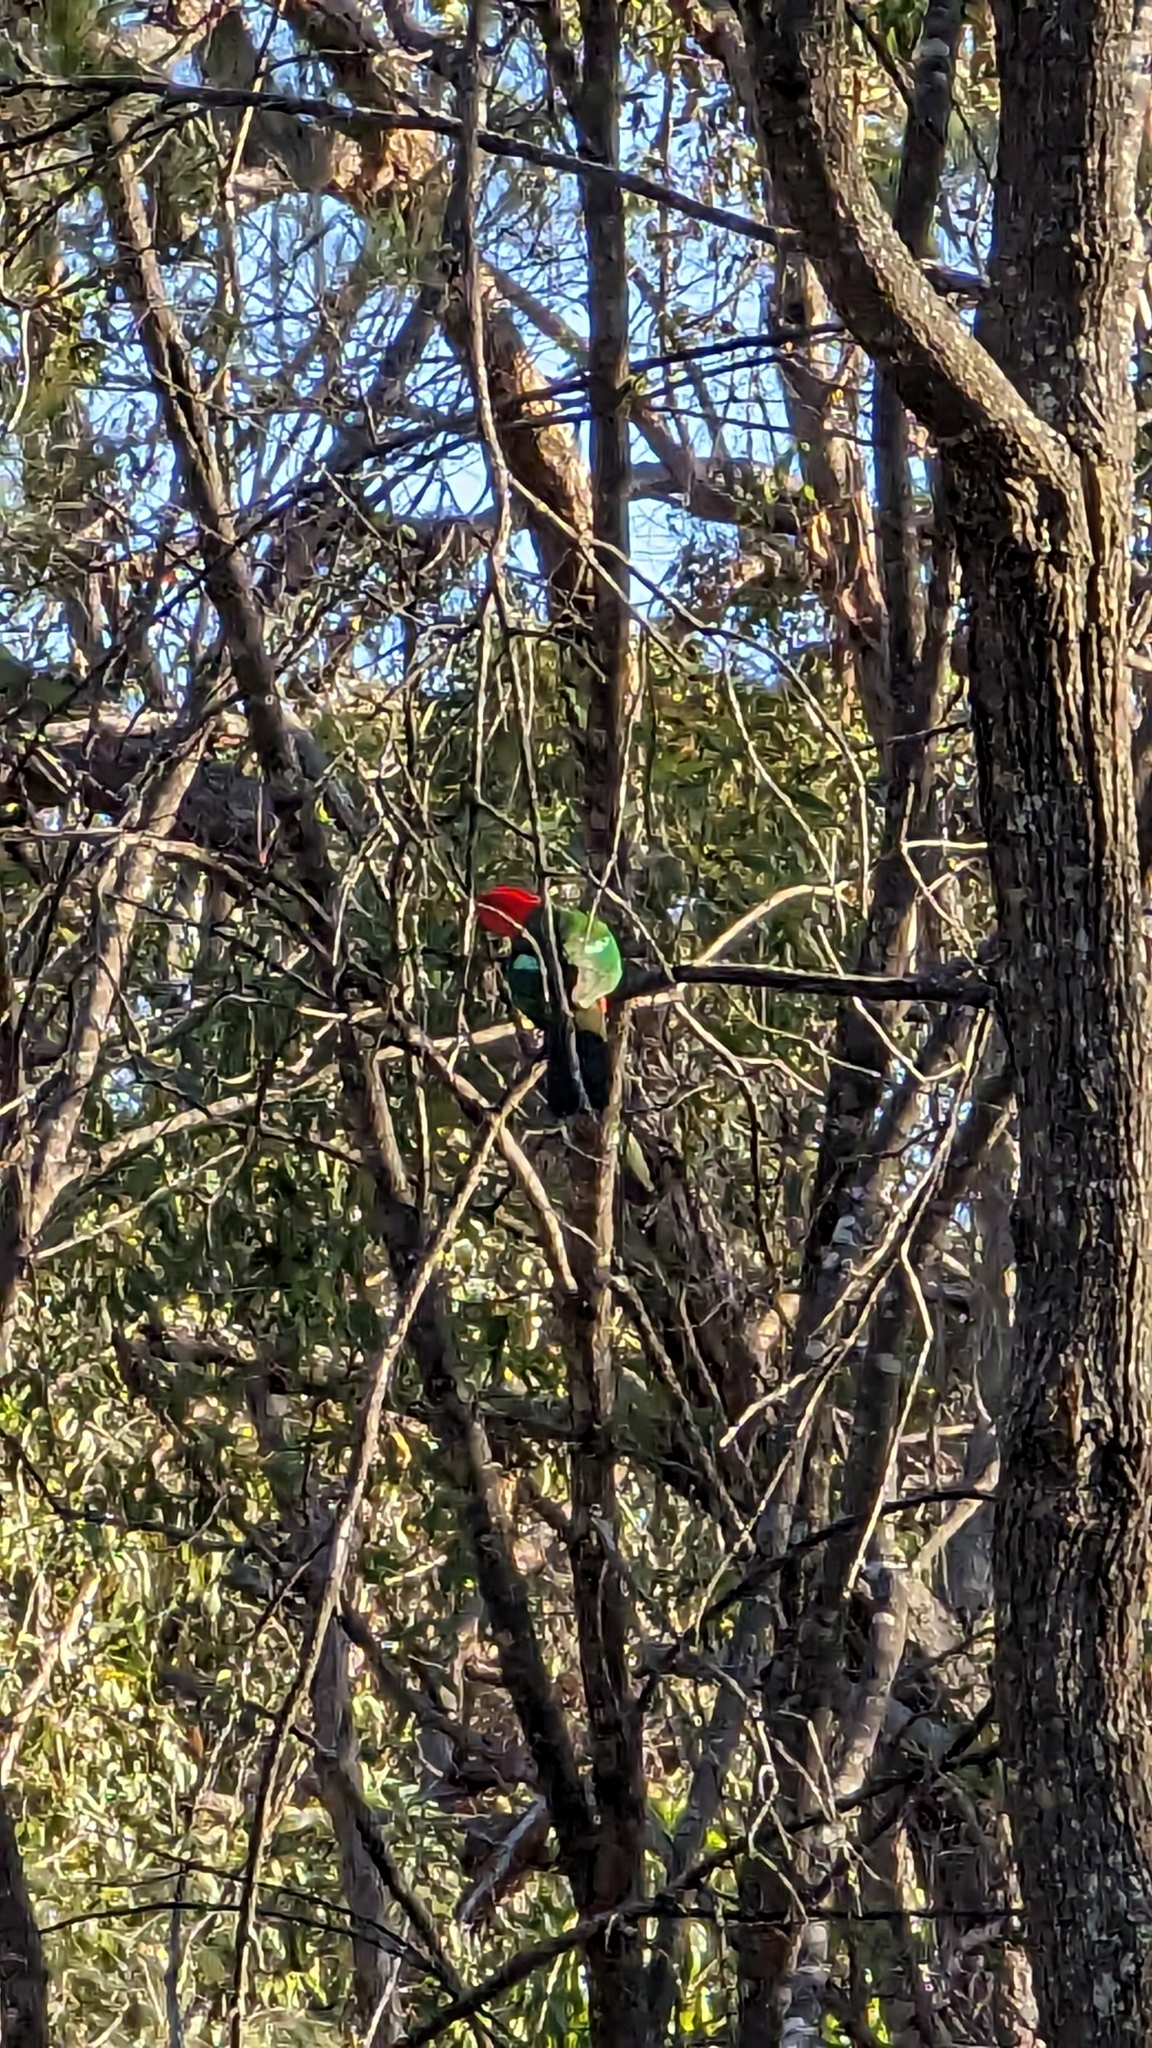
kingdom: Animalia
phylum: Chordata
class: Aves
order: Psittaciformes
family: Psittacidae
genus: Alisterus
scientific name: Alisterus scapularis
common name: Australian king parrot
